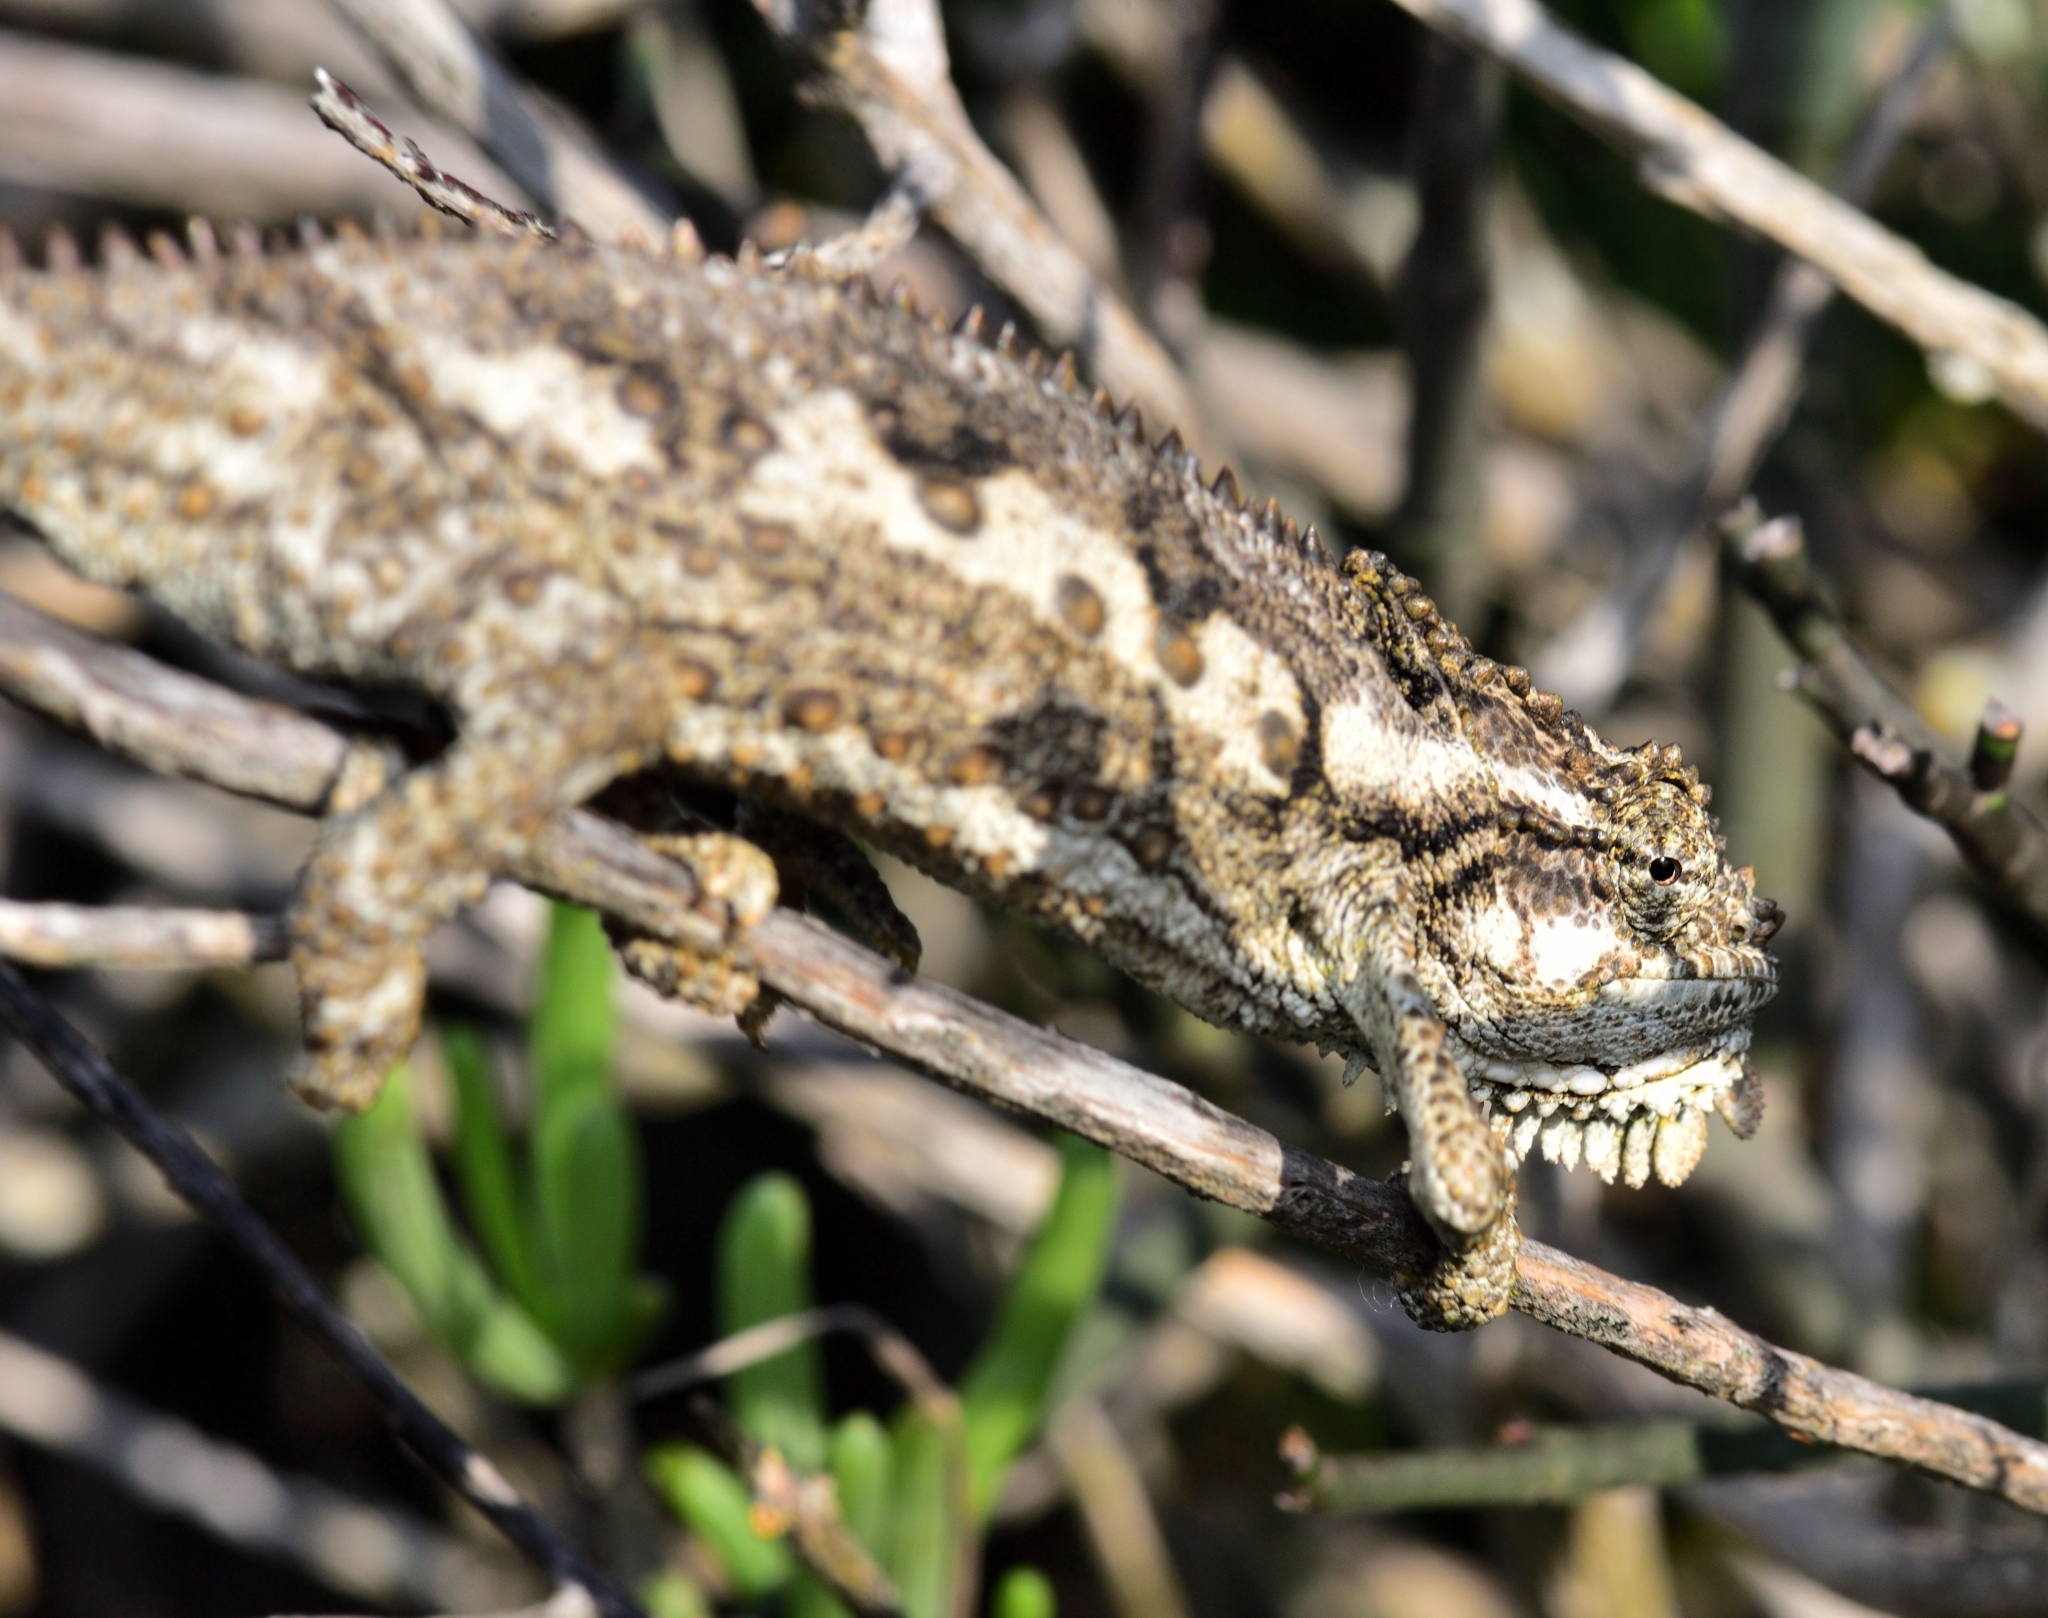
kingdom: Animalia
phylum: Chordata
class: Squamata
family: Chamaeleonidae
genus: Bradypodion
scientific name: Bradypodion occidentale
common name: Western dwarf chameleon
